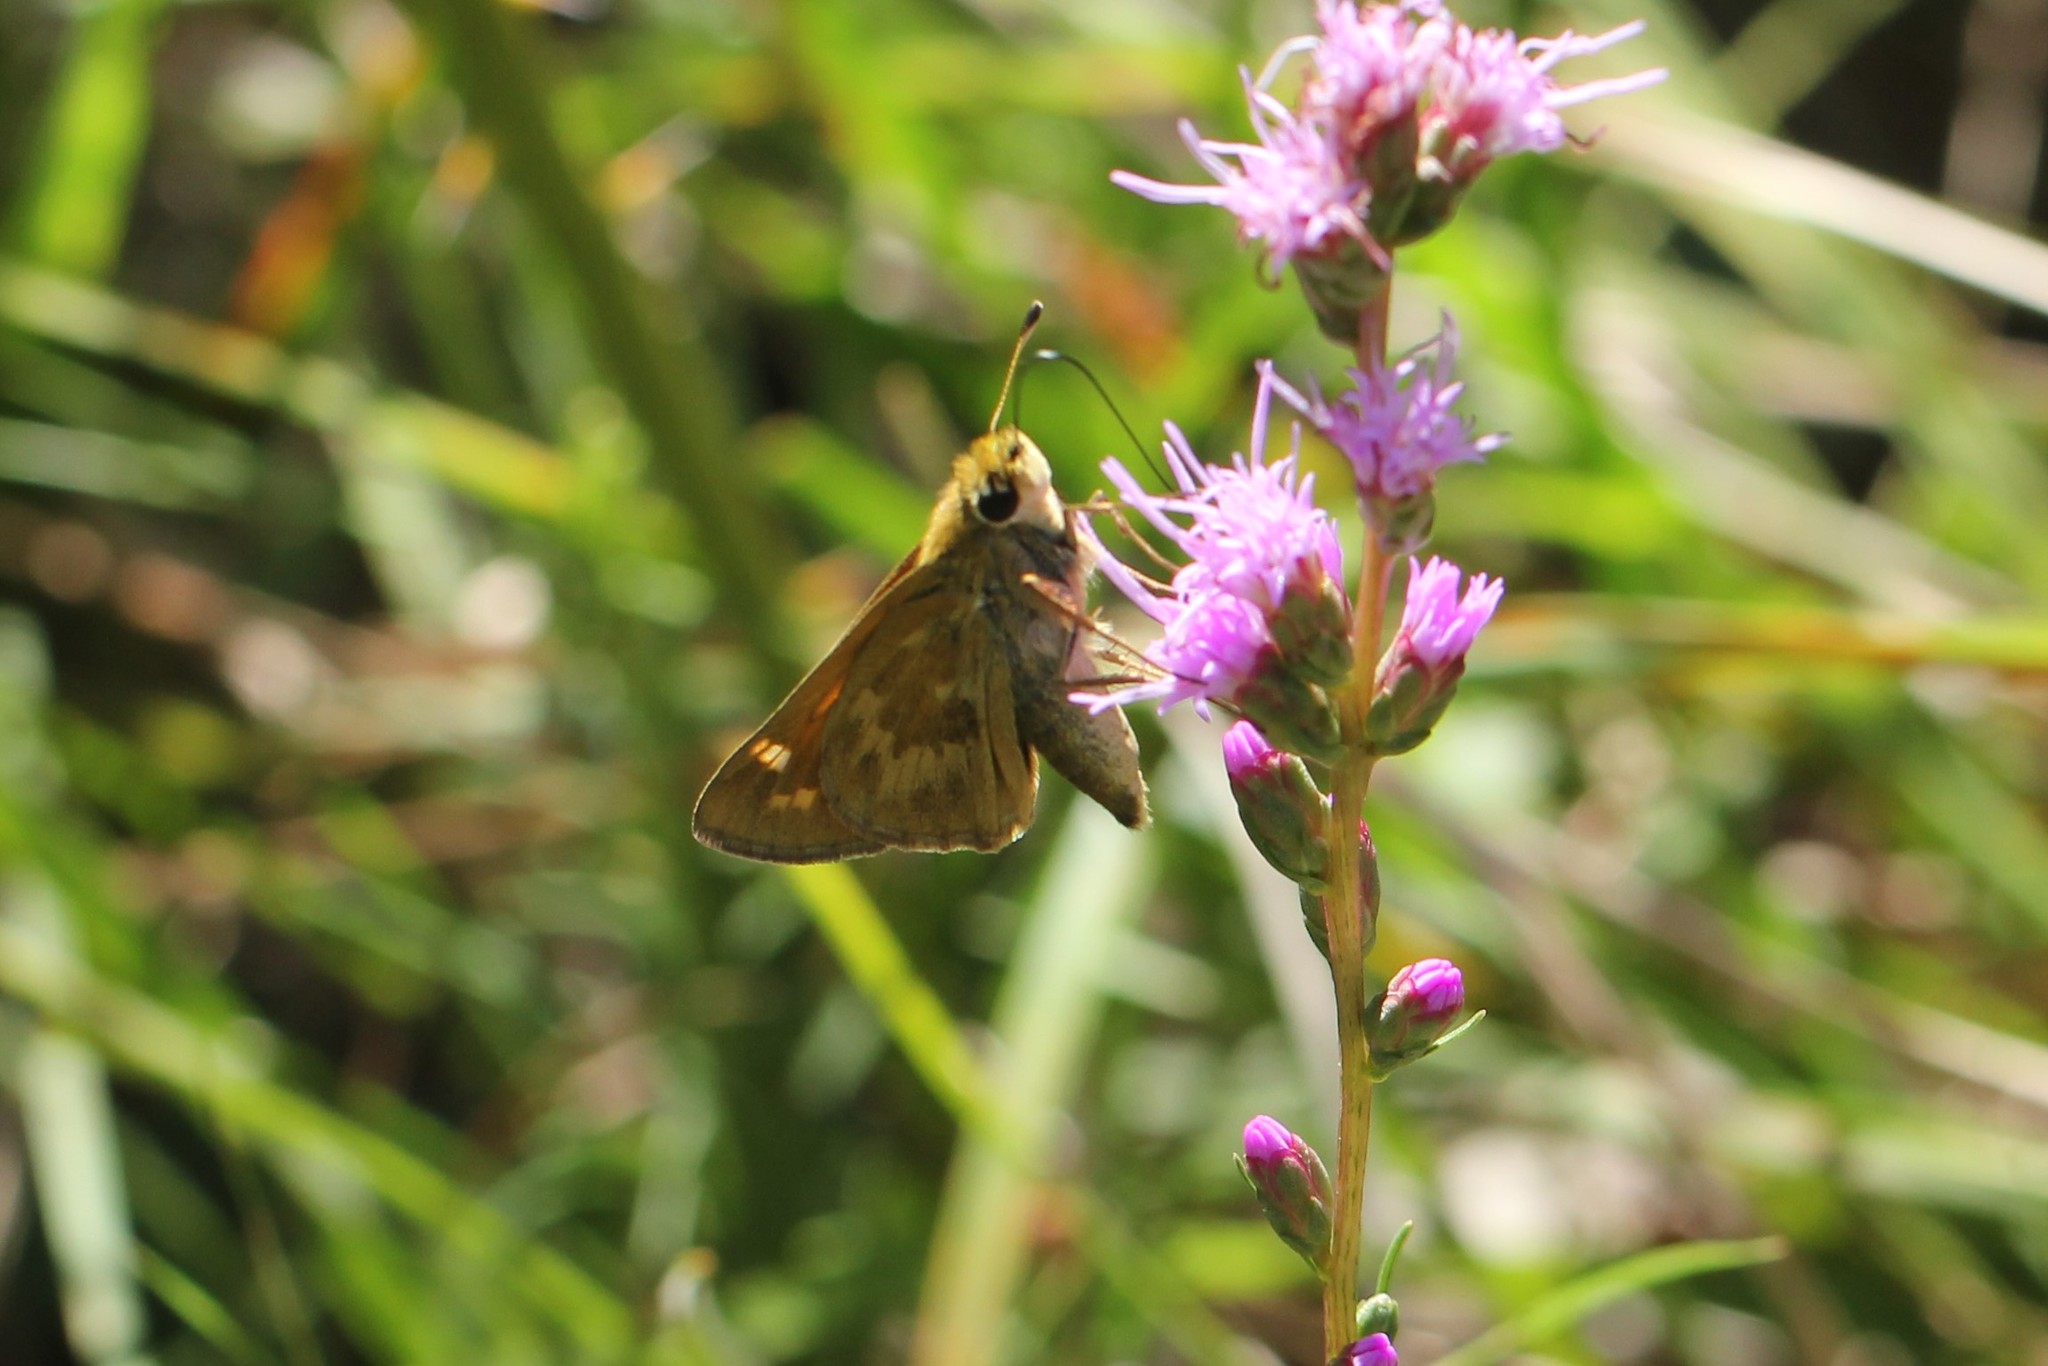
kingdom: Animalia
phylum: Arthropoda
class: Insecta
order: Lepidoptera
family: Hesperiidae
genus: Atalopedes
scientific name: Atalopedes
